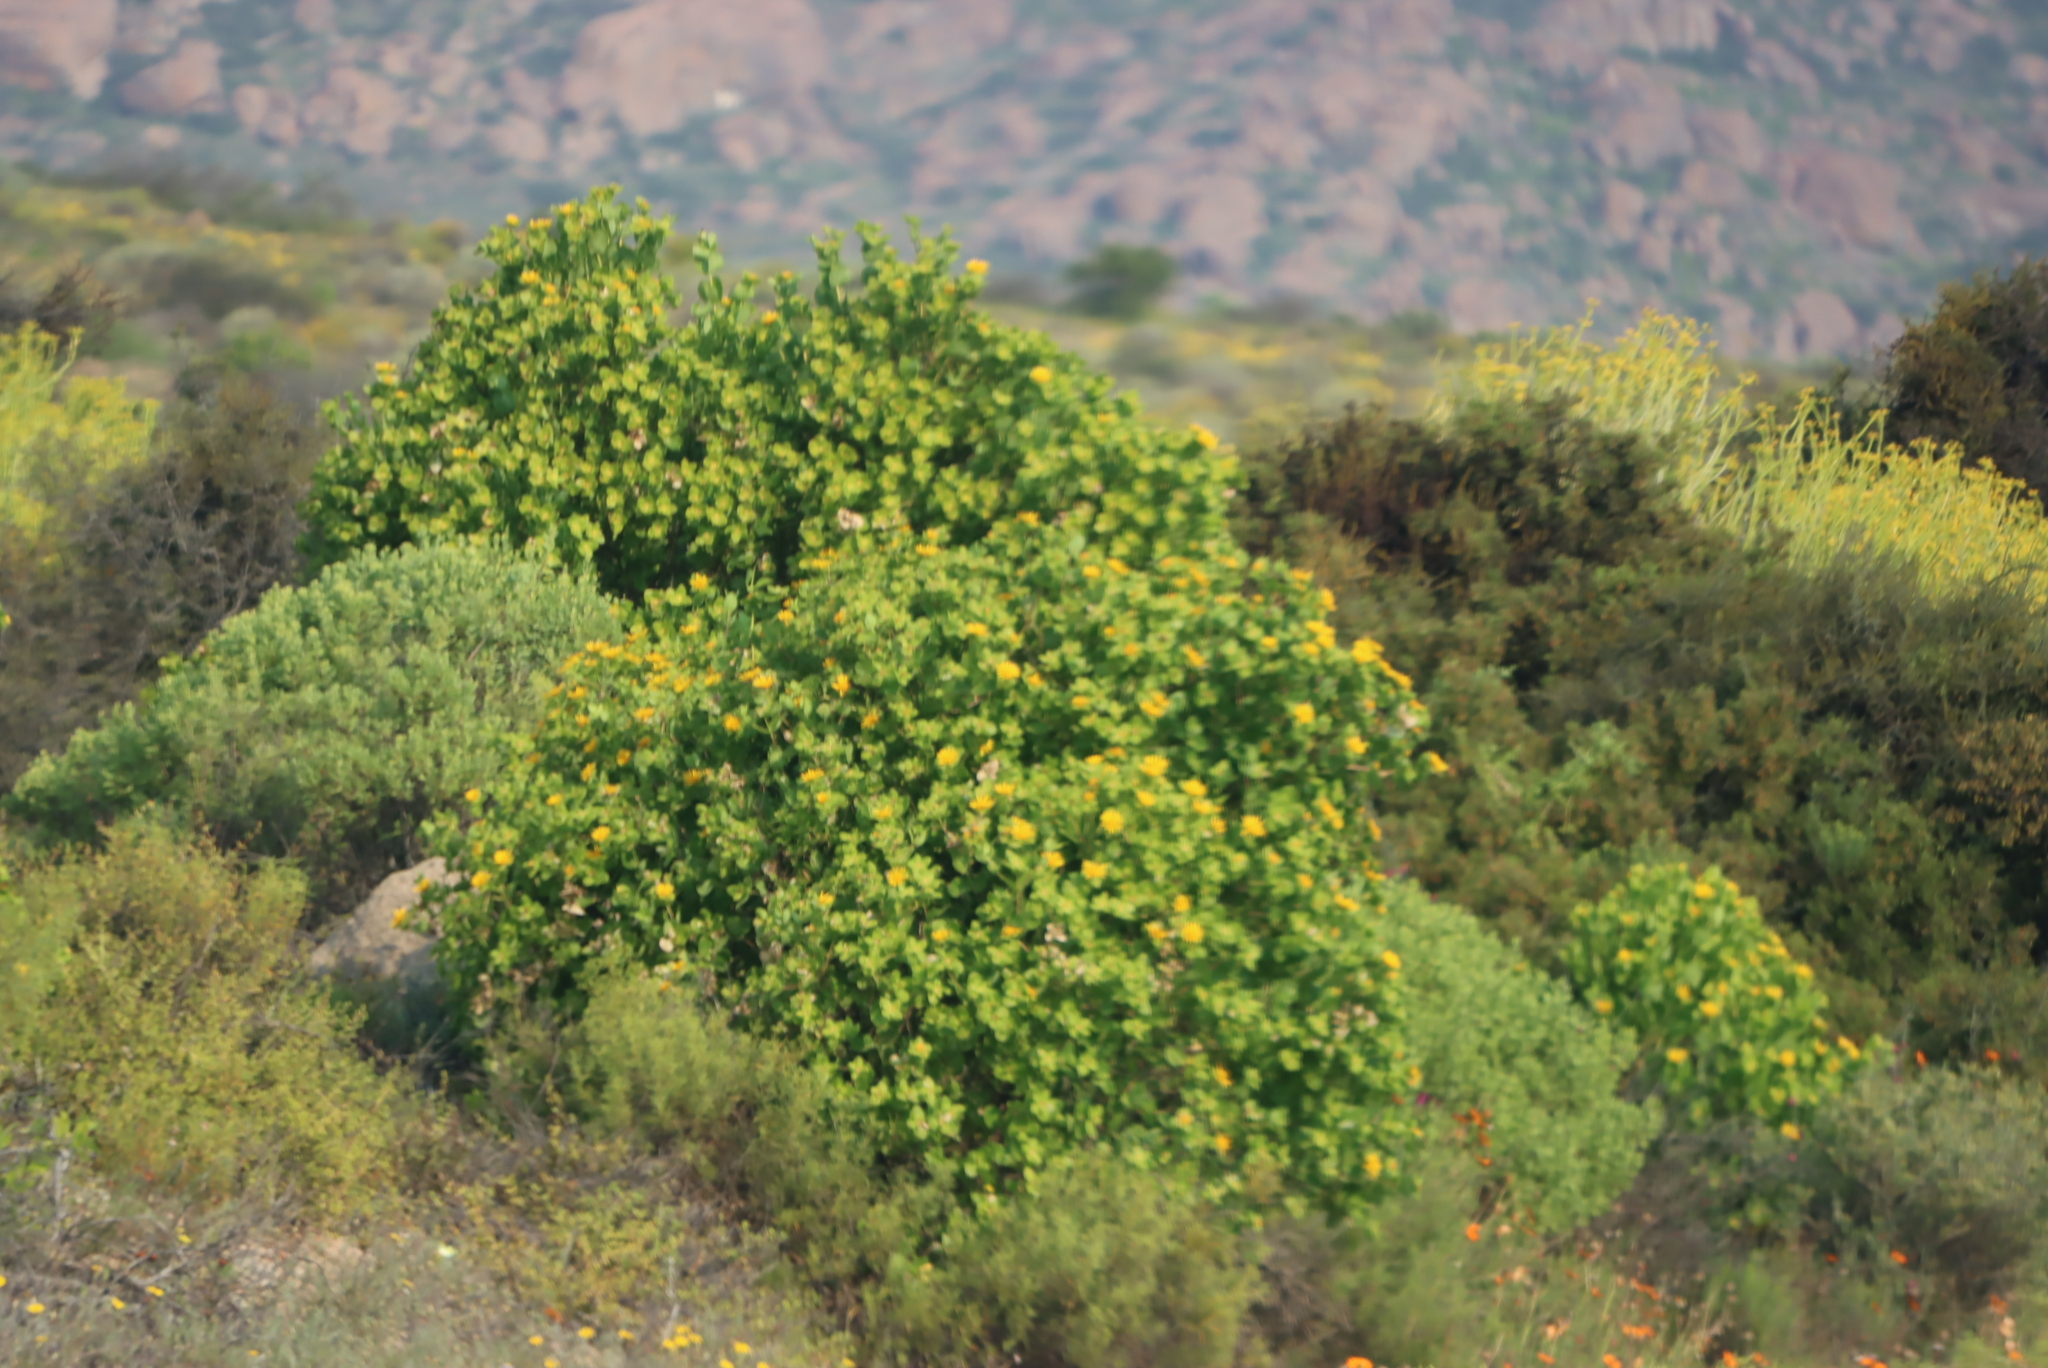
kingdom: Plantae
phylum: Tracheophyta
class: Magnoliopsida
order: Asterales
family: Asteraceae
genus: Didelta
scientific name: Didelta spinosa
